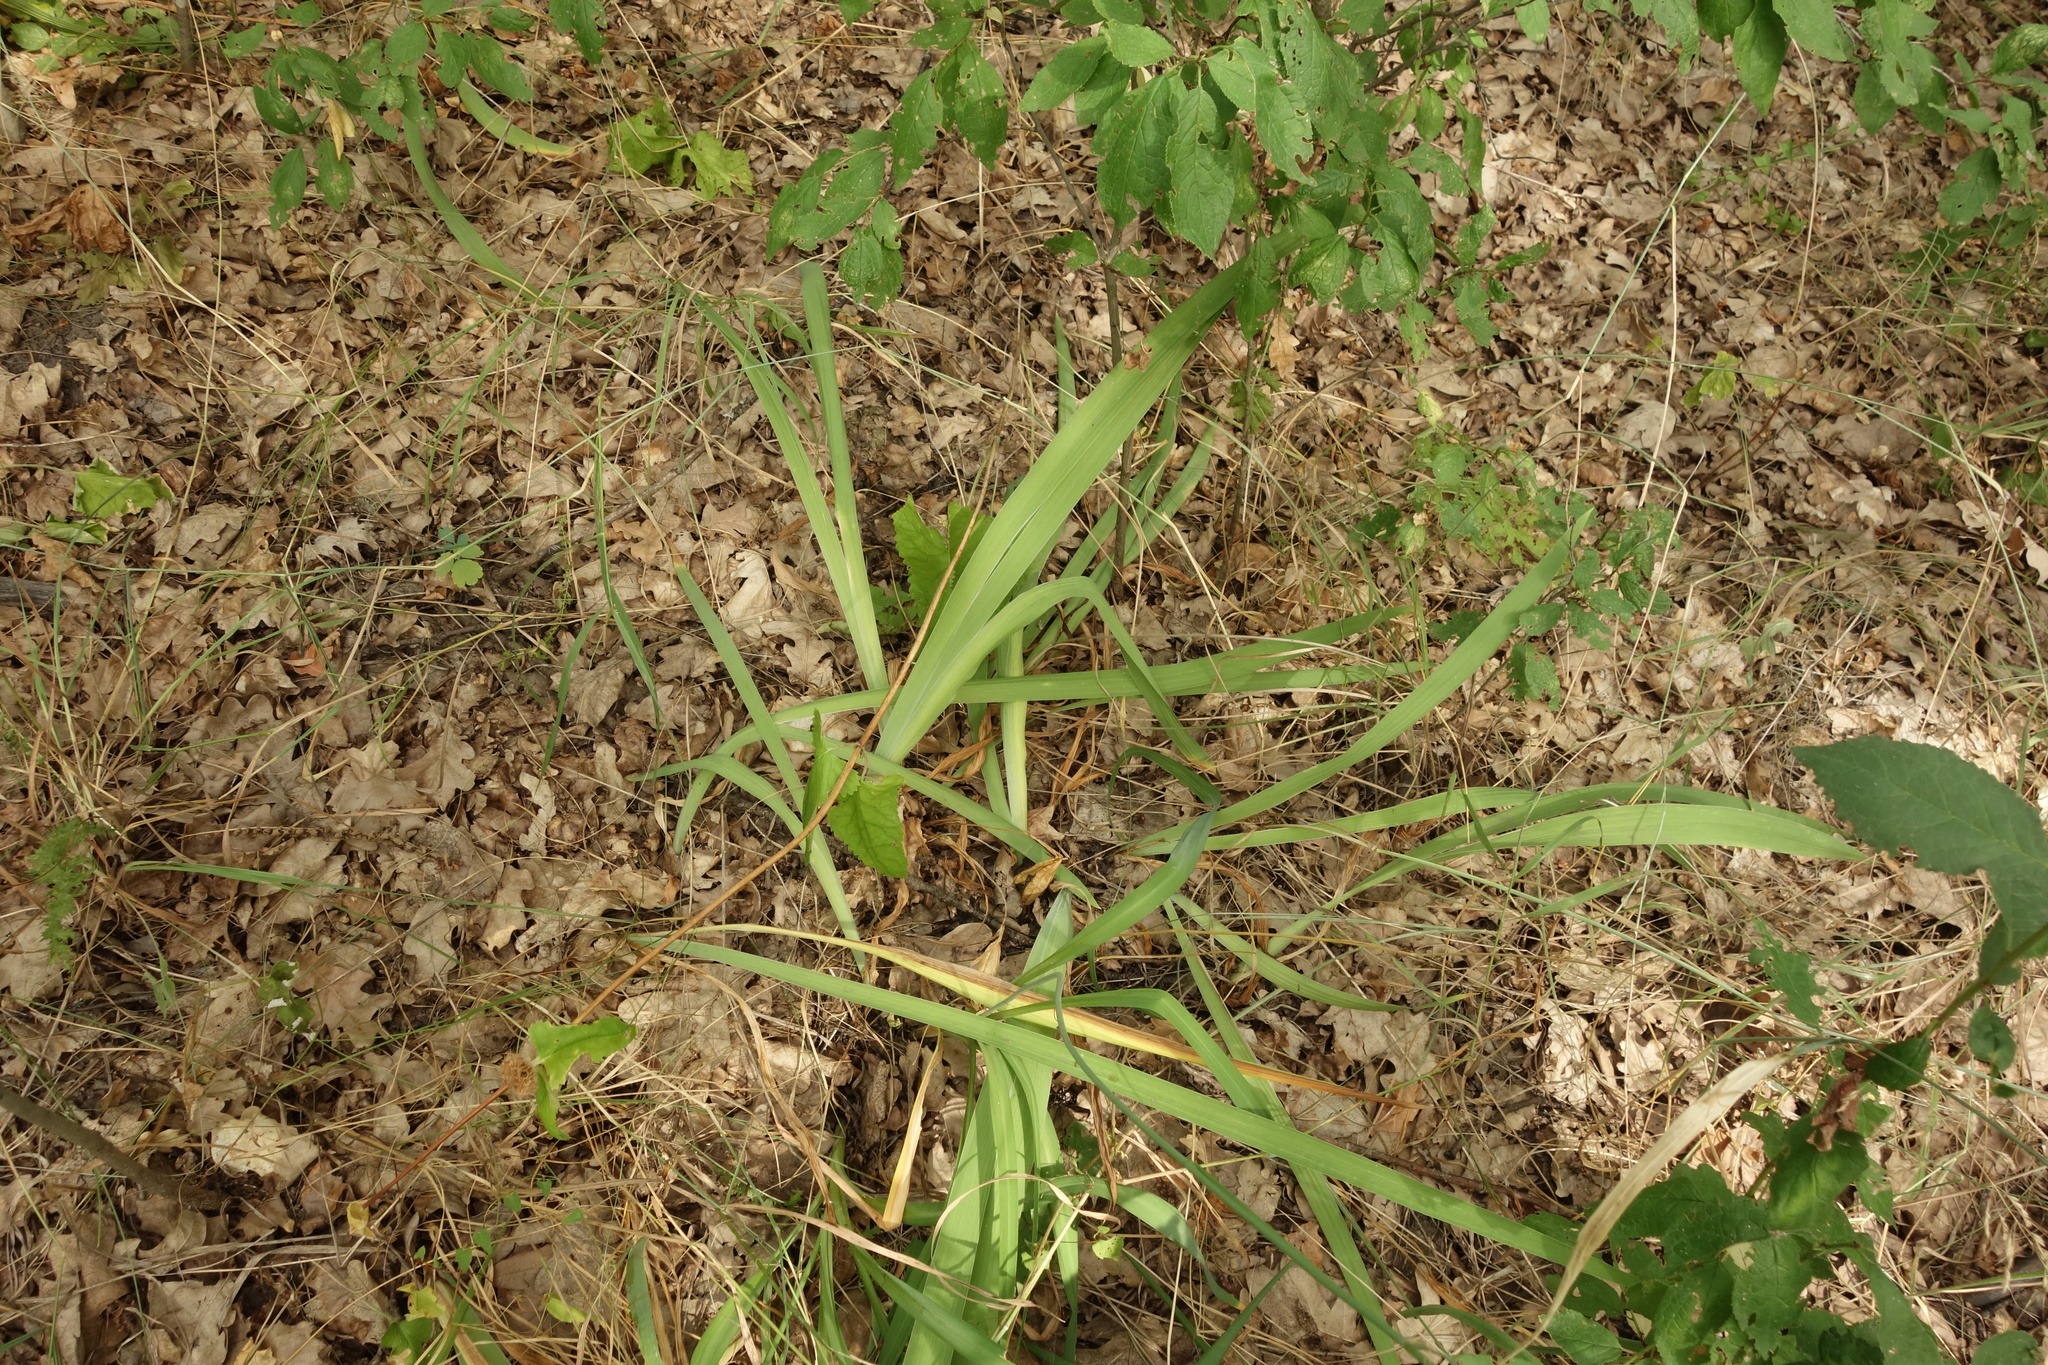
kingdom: Plantae
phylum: Tracheophyta
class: Liliopsida
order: Asparagales
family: Iridaceae
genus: Iris
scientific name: Iris aphylla
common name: Stool iris
